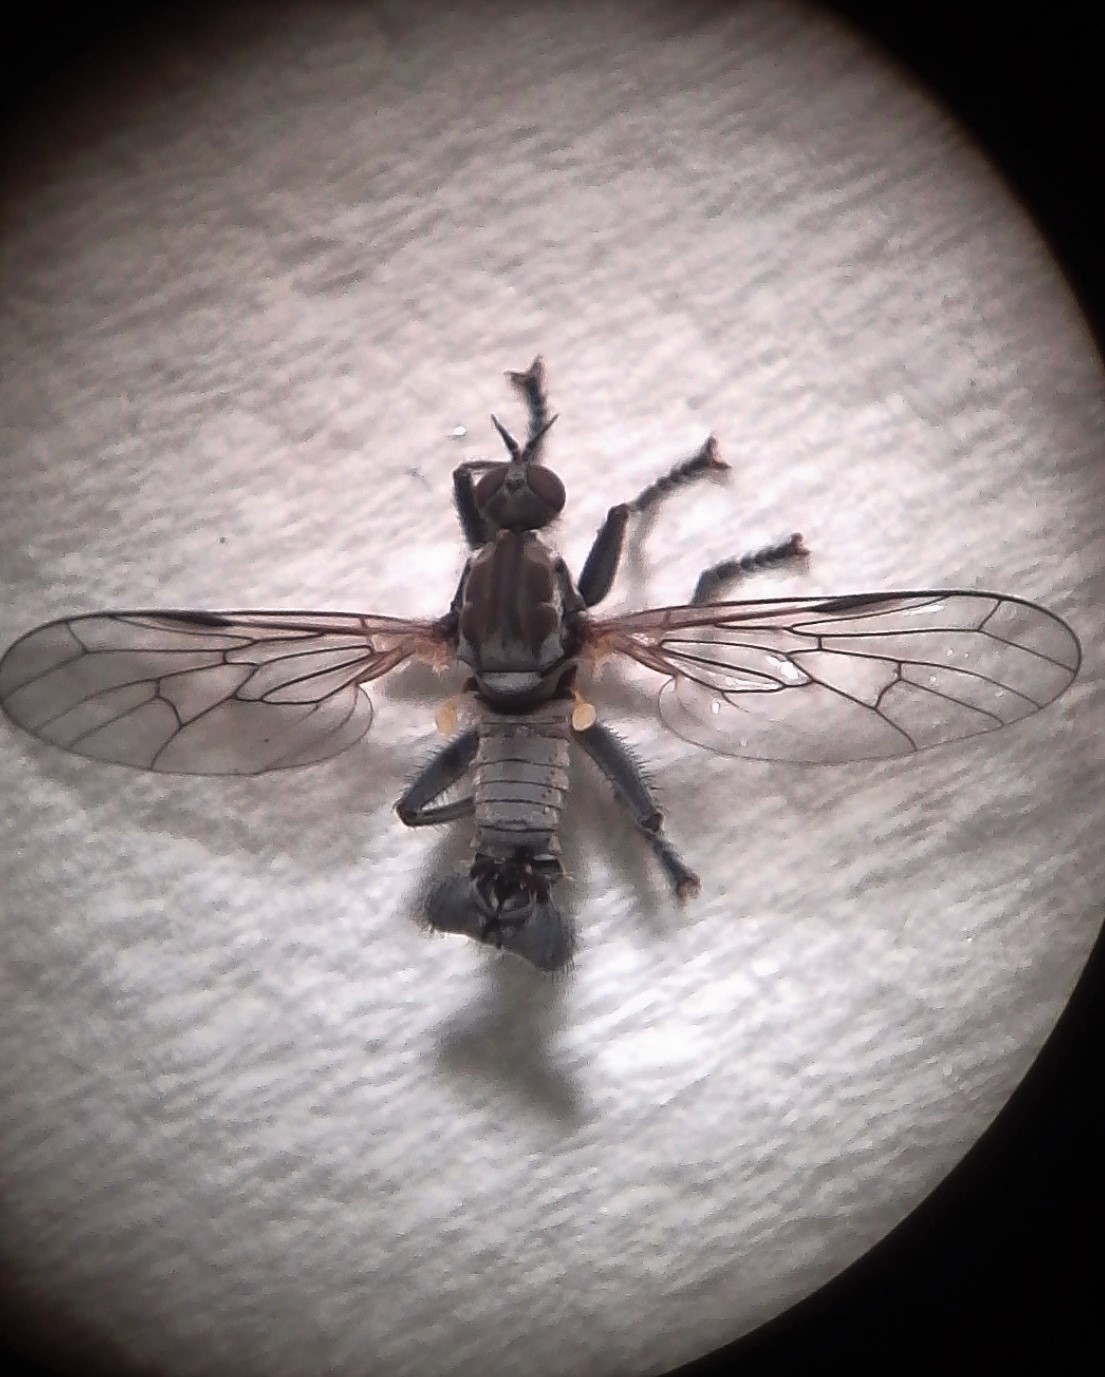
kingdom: Animalia
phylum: Arthropoda
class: Insecta
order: Diptera
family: Empididae
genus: Empis
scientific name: Empis brouni
